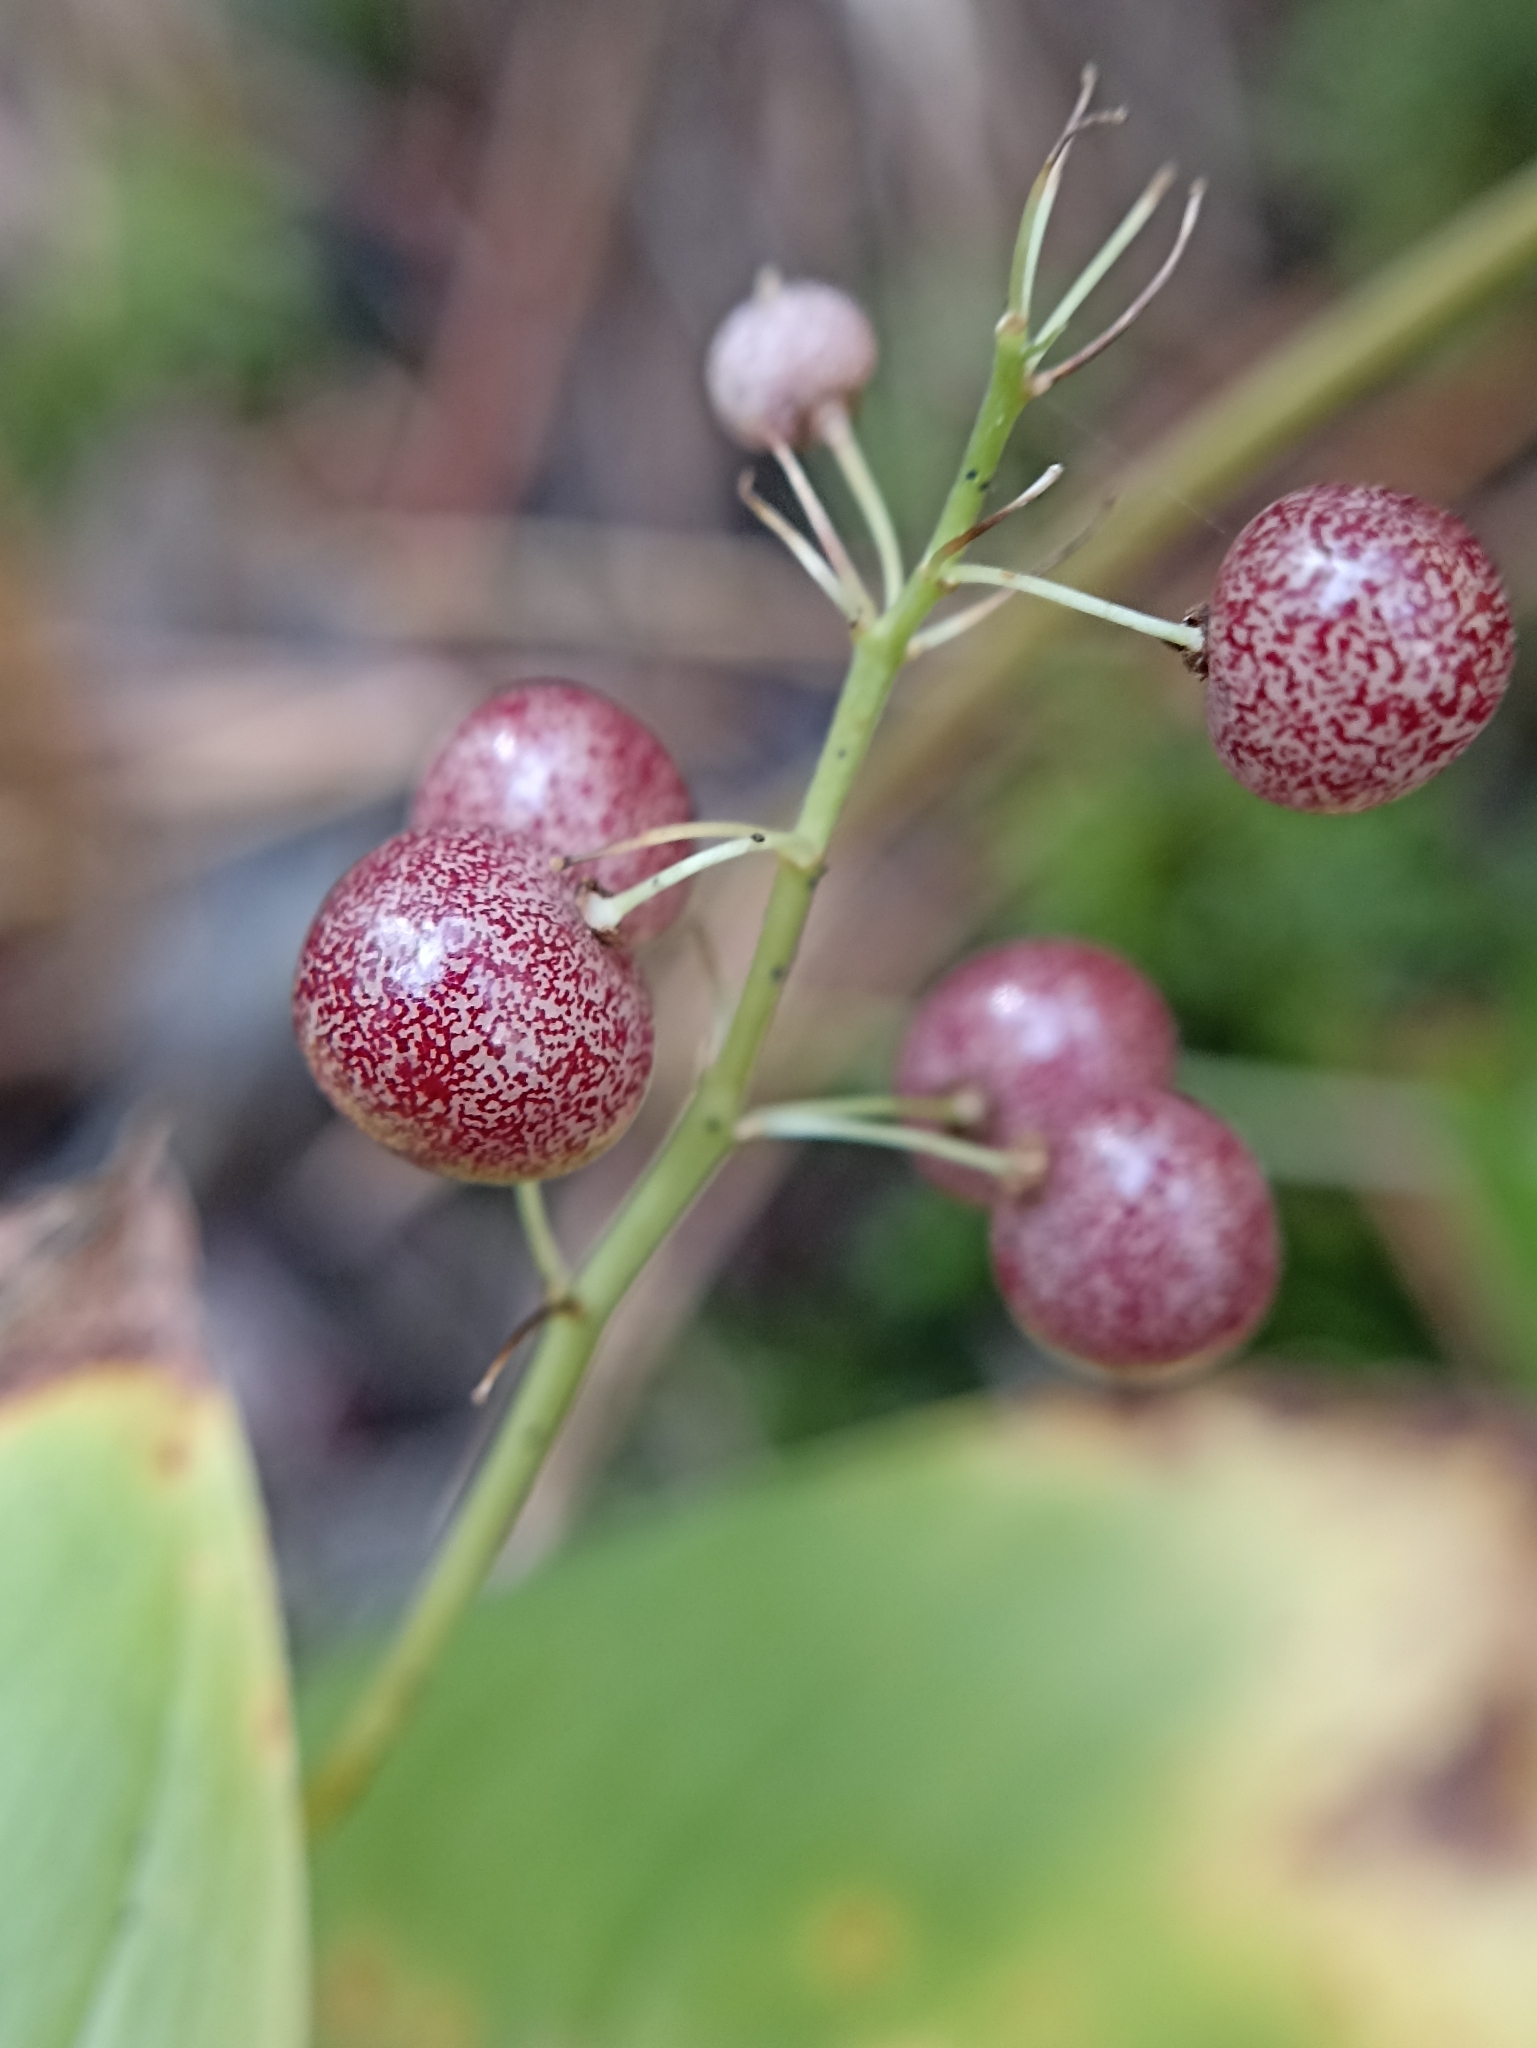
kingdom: Plantae
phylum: Tracheophyta
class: Liliopsida
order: Asparagales
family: Asparagaceae
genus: Maianthemum
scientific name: Maianthemum bifolium
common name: May lily
